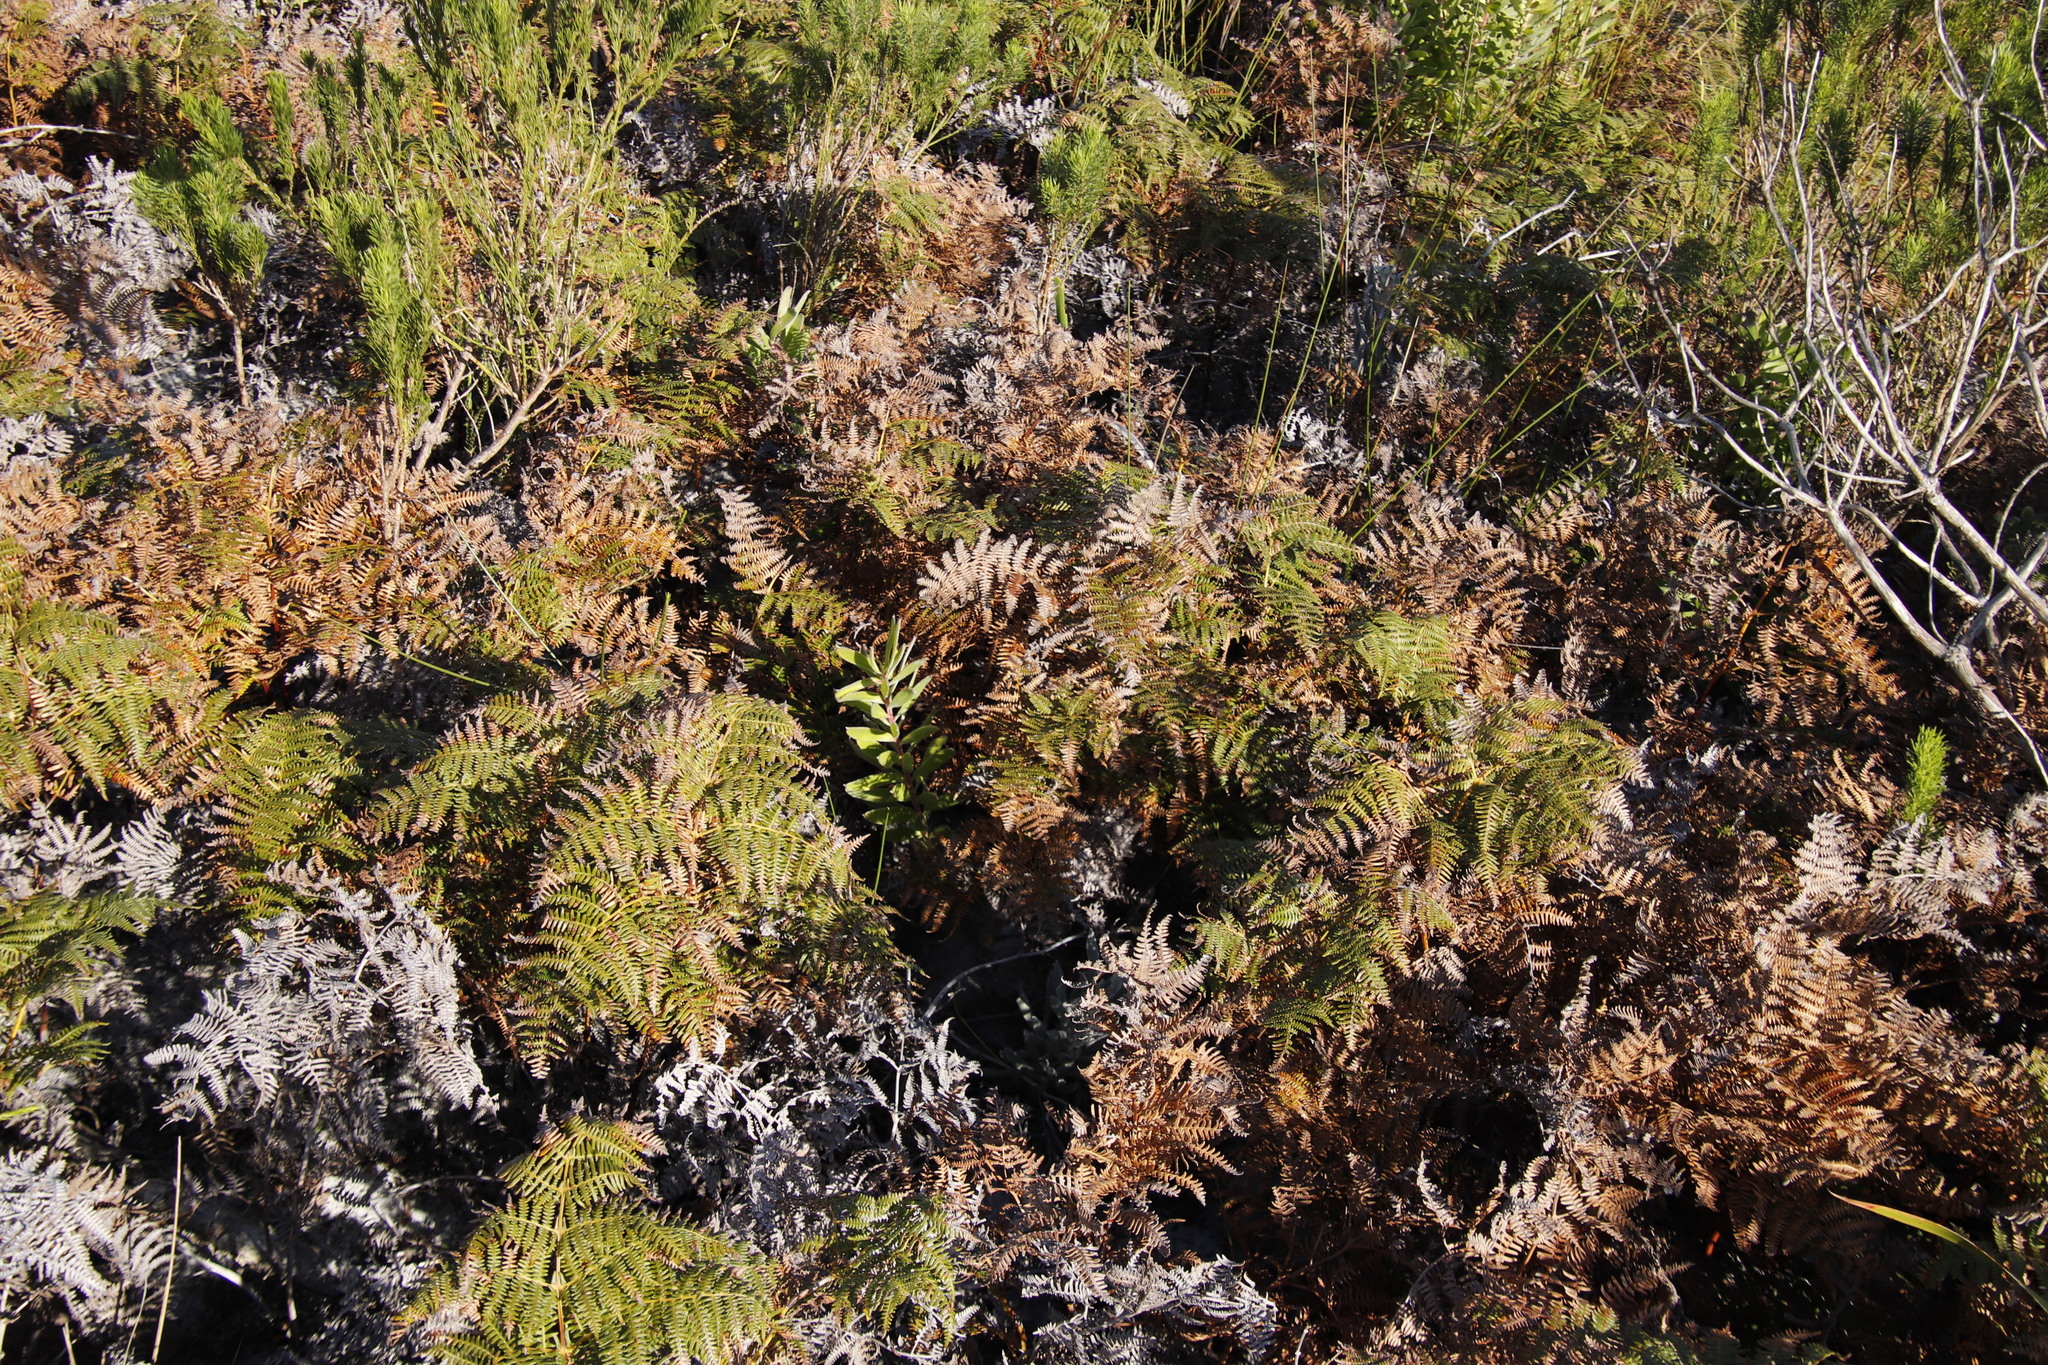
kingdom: Plantae
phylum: Tracheophyta
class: Polypodiopsida
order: Polypodiales
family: Dennstaedtiaceae
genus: Pteridium
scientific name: Pteridium aquilinum
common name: Bracken
